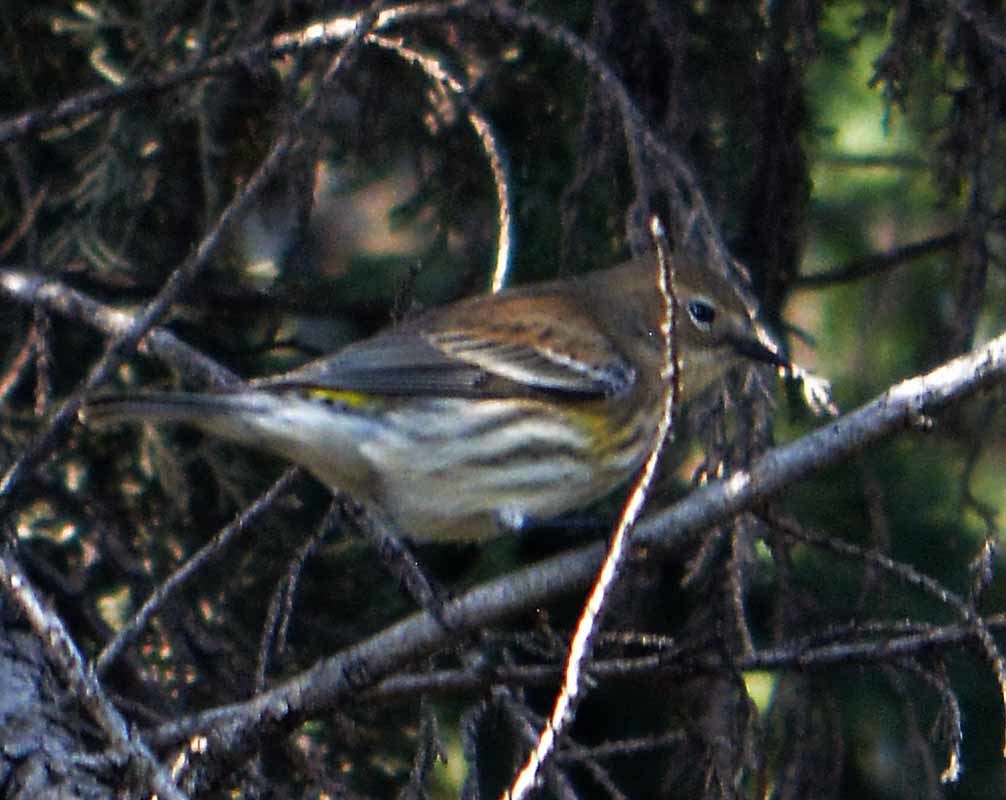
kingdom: Animalia
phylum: Chordata
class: Aves
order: Passeriformes
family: Parulidae
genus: Setophaga
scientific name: Setophaga coronata
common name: Myrtle warbler
